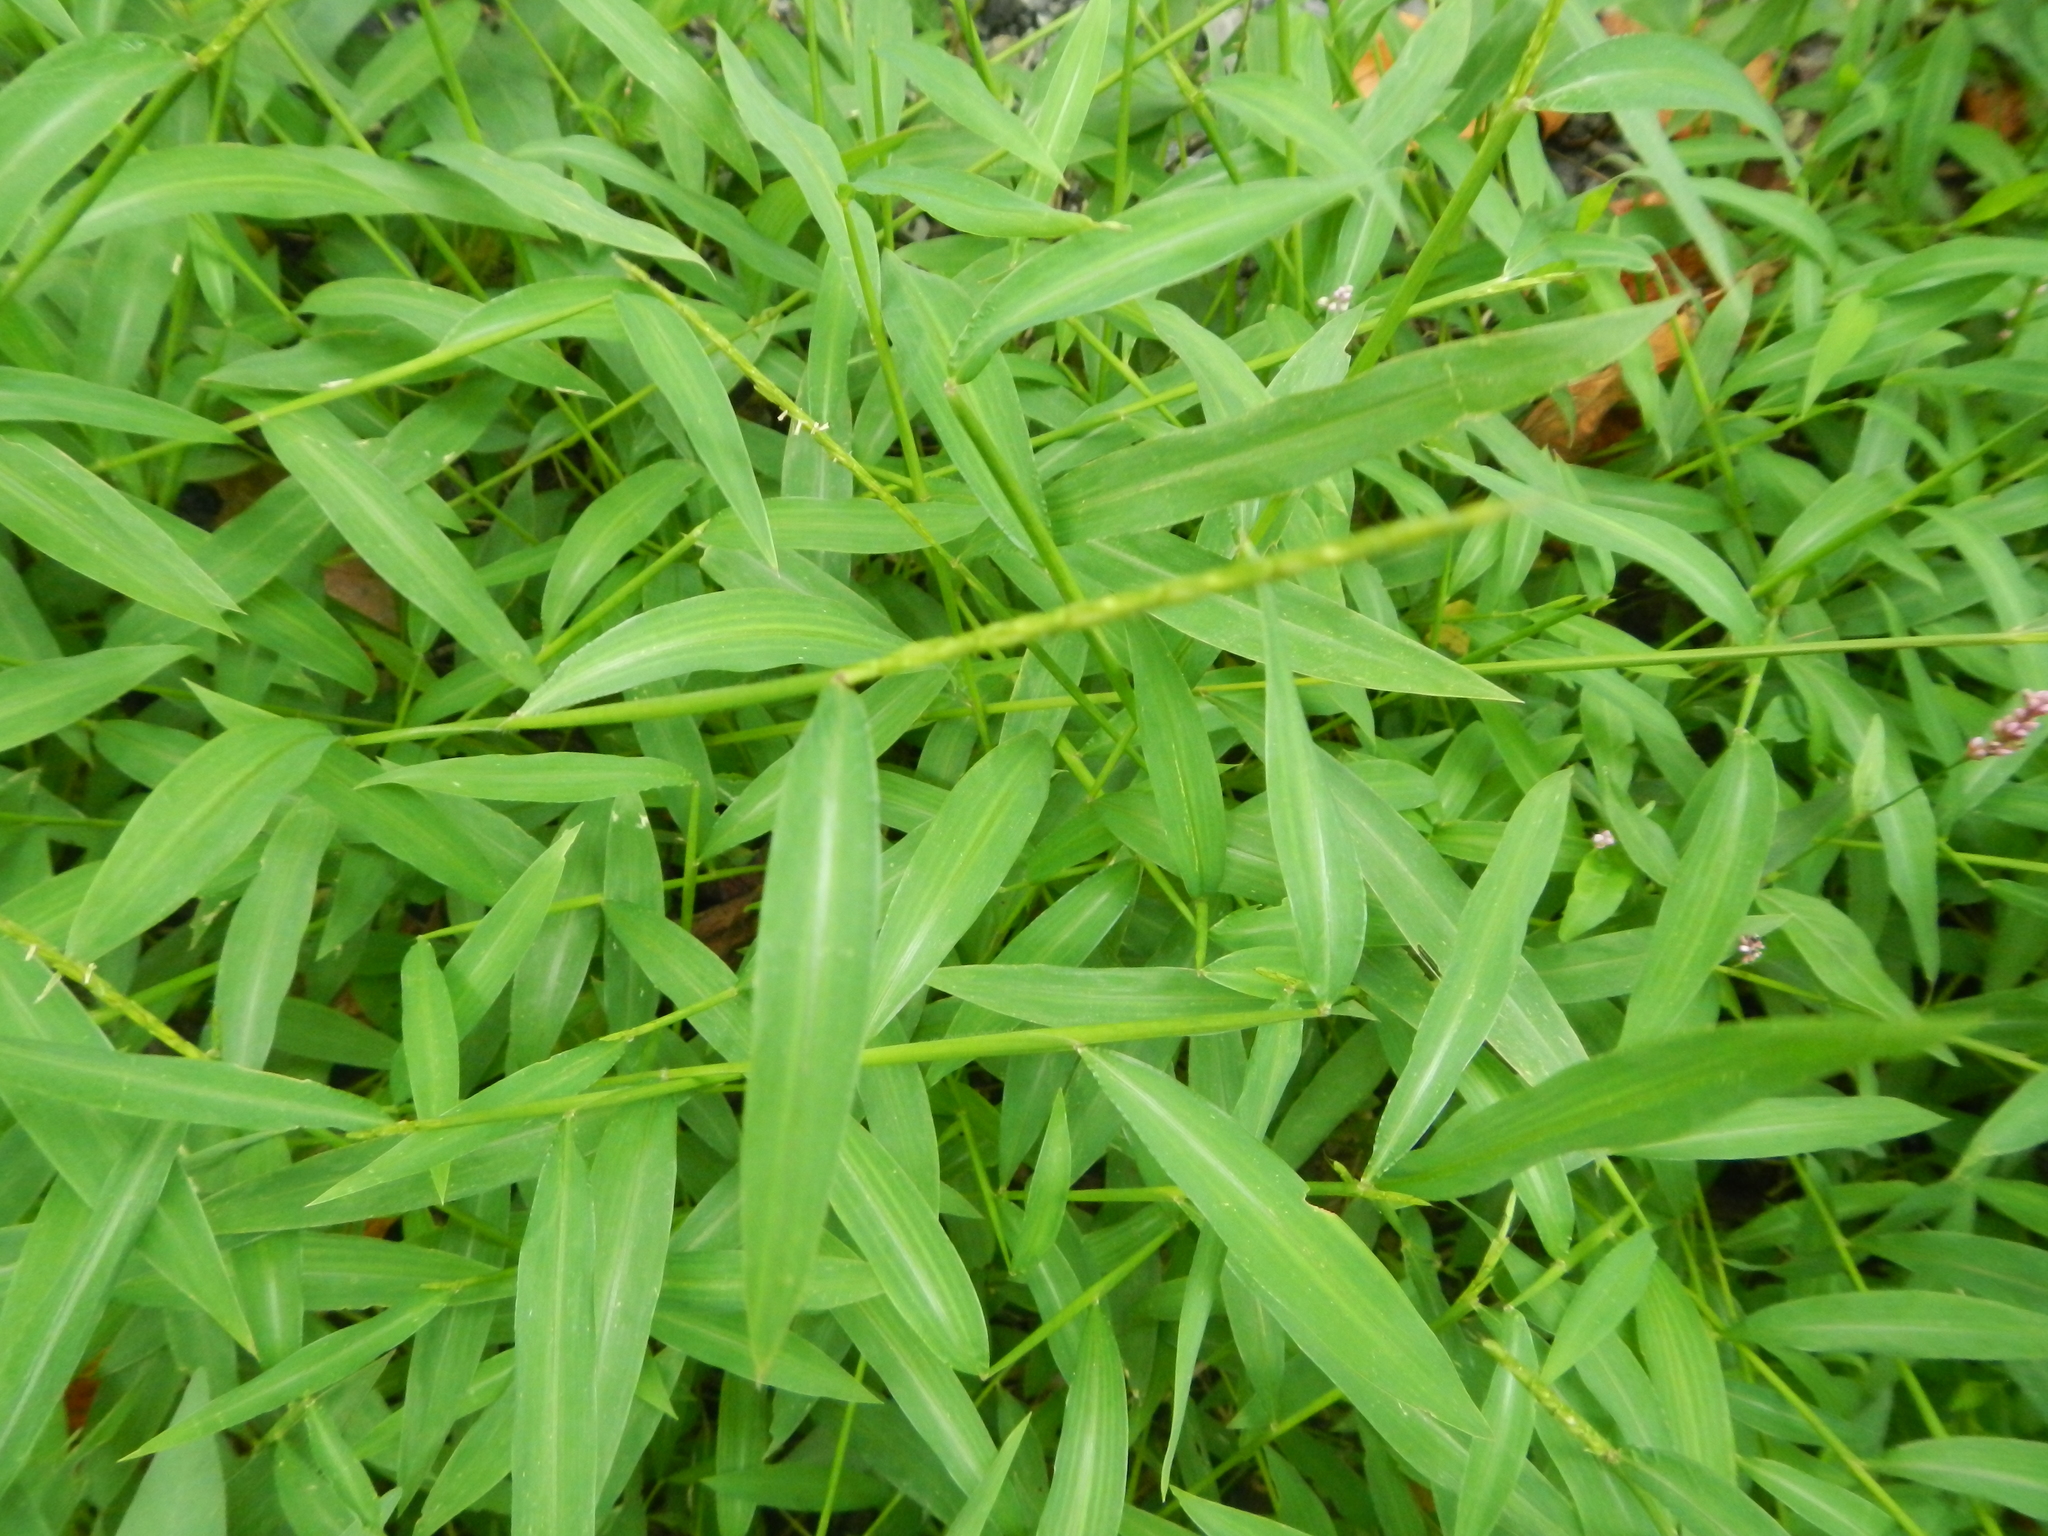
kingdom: Plantae
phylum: Tracheophyta
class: Liliopsida
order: Poales
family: Poaceae
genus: Microstegium
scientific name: Microstegium vimineum
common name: Japanese stiltgrass
